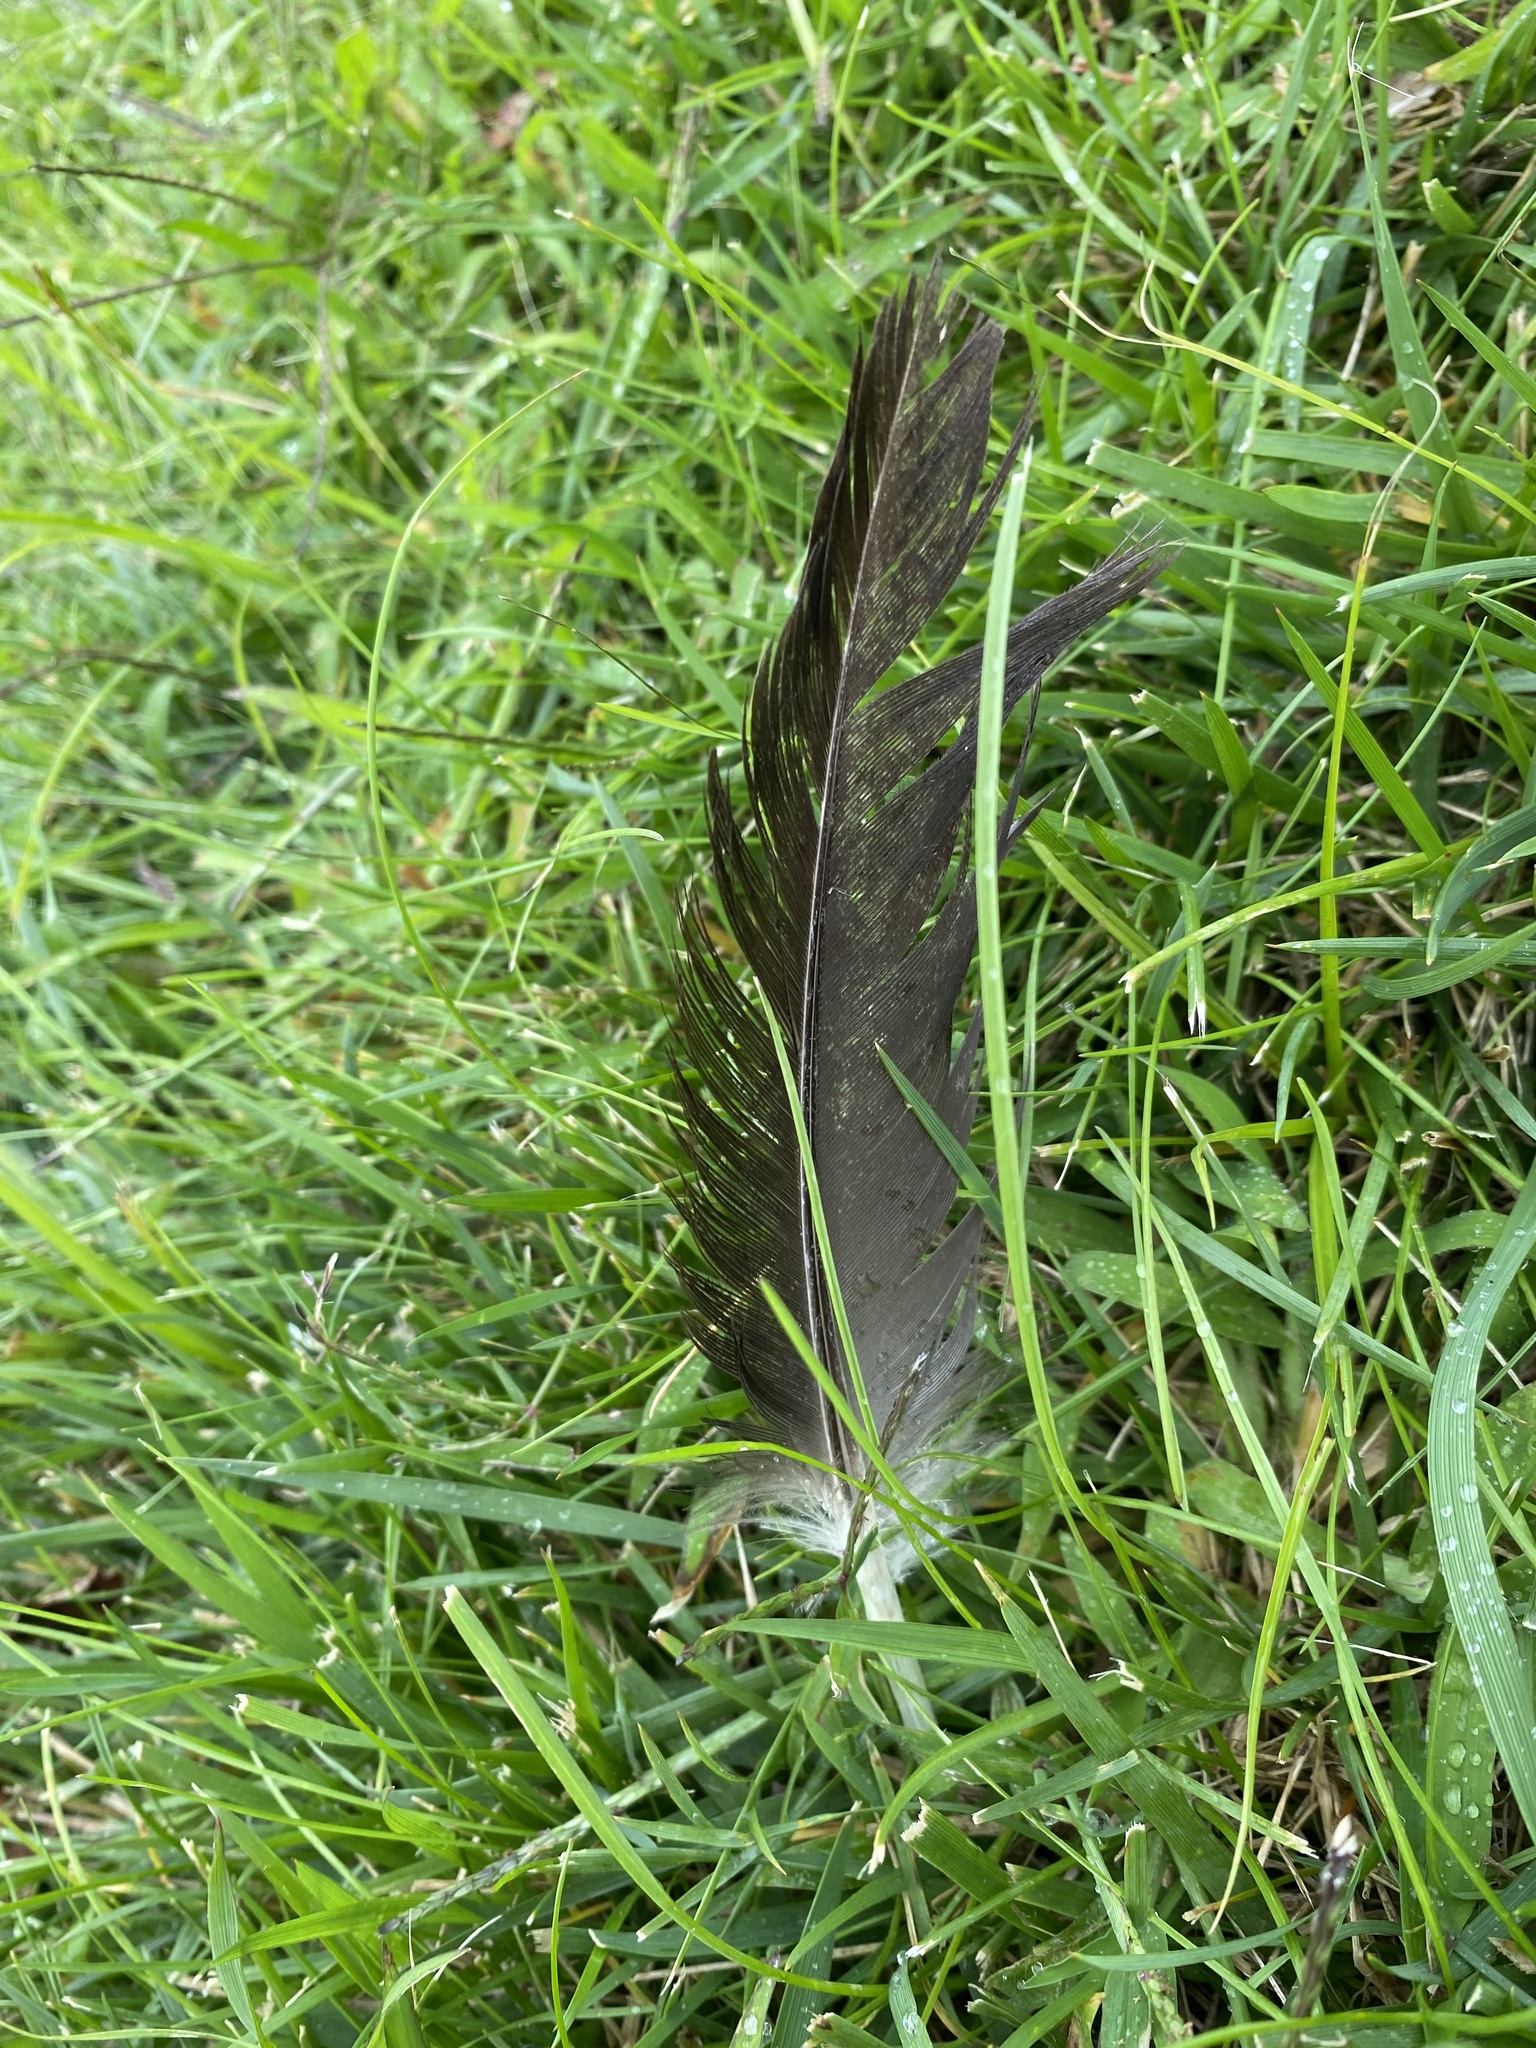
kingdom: Animalia
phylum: Chordata
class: Aves
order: Anseriformes
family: Anatidae
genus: Branta
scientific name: Branta canadensis
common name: Canada goose
